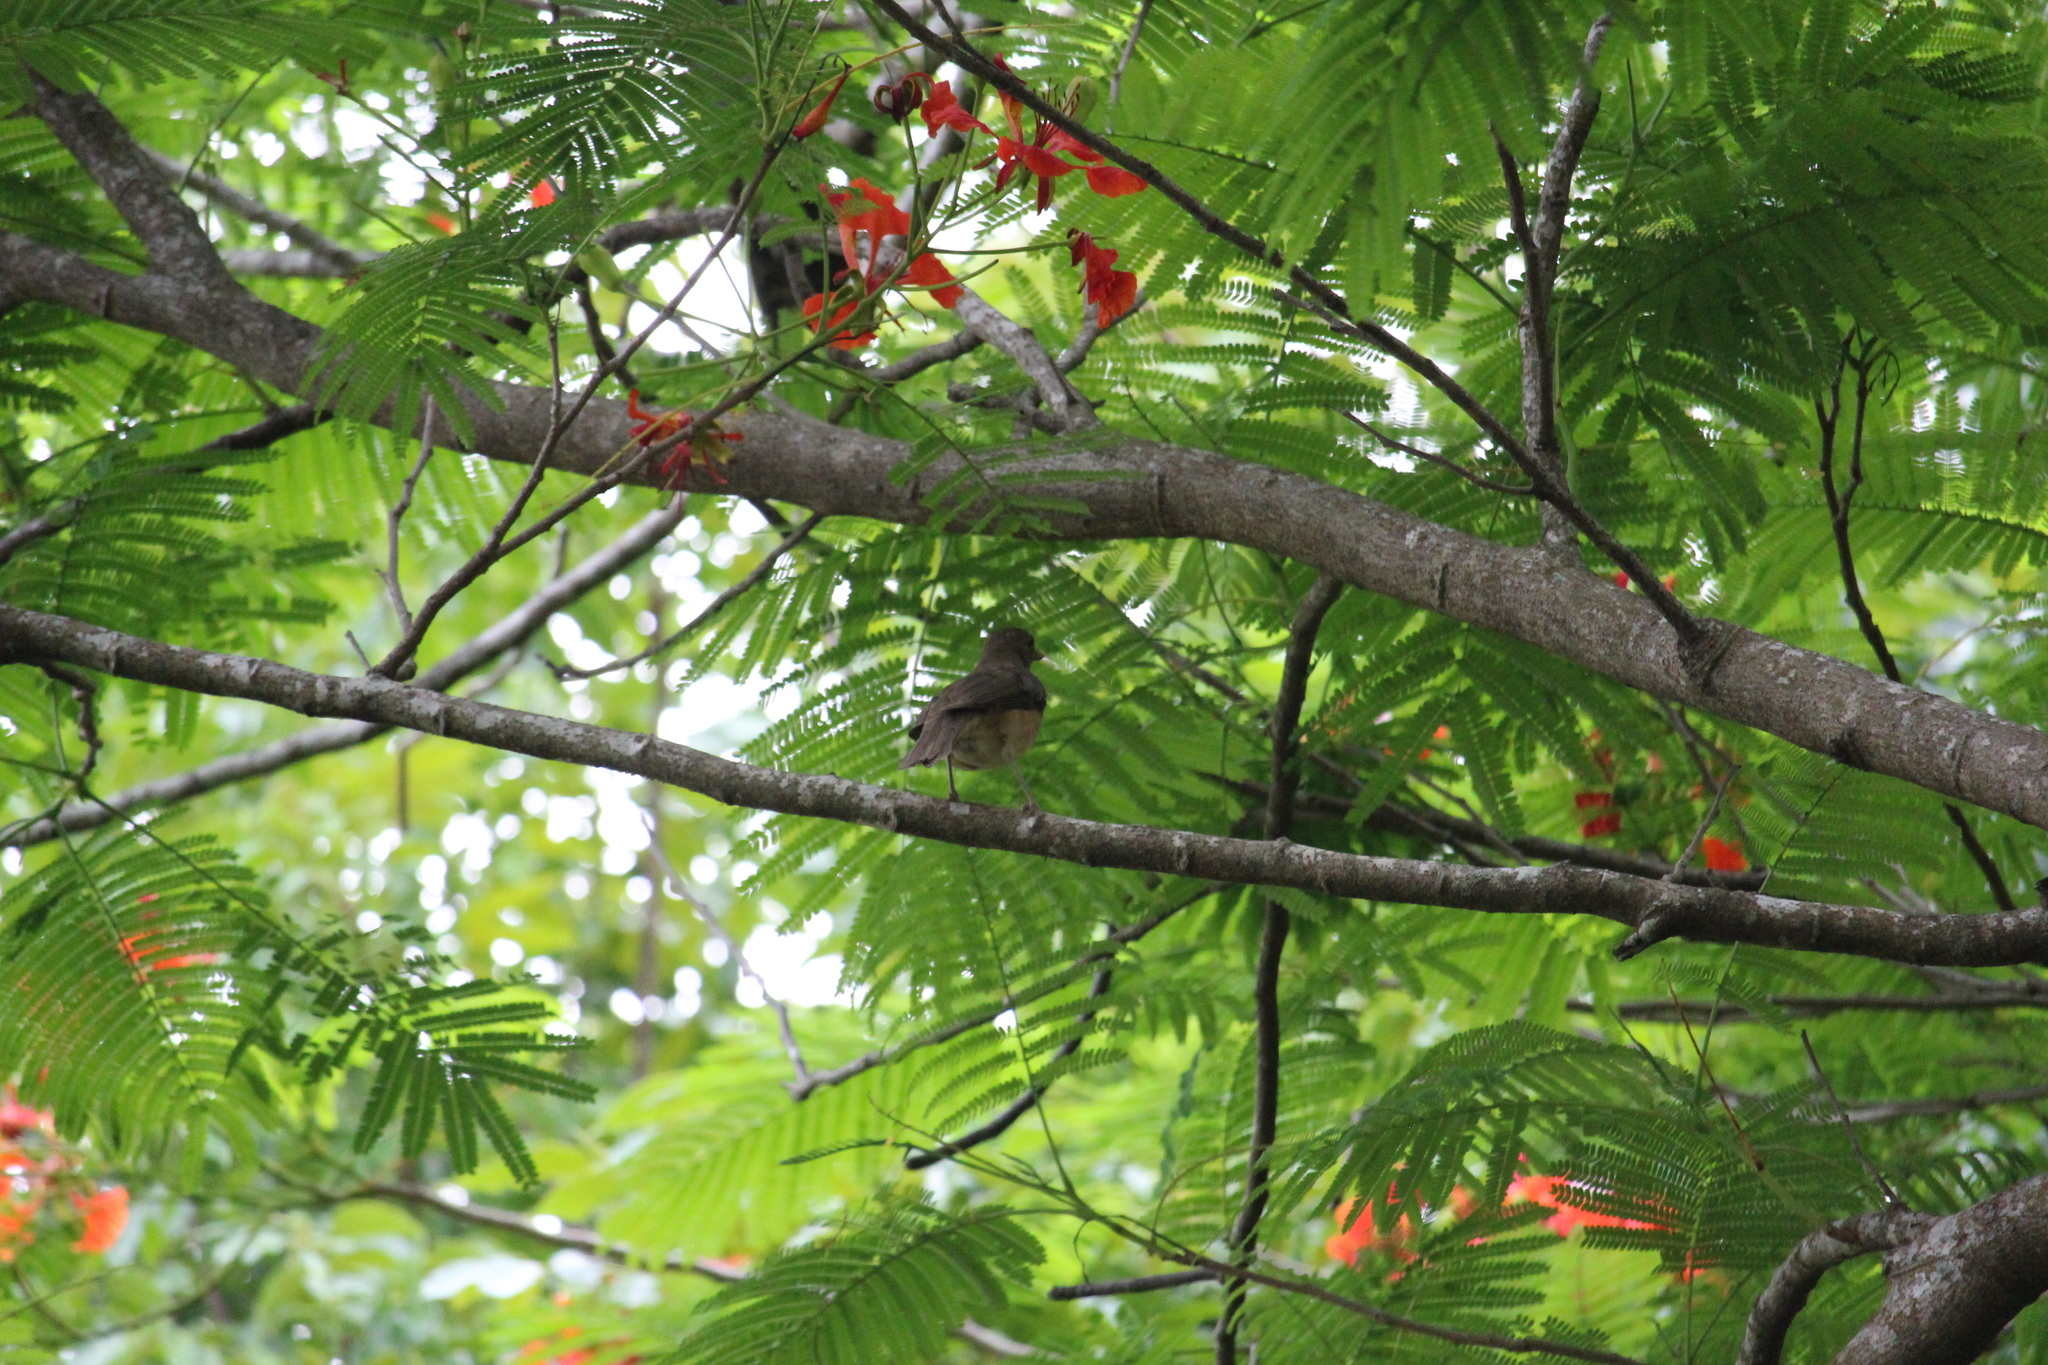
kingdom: Animalia
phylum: Chordata
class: Aves
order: Passeriformes
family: Turdidae
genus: Turdus
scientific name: Turdus grayi
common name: Clay-colored thrush
